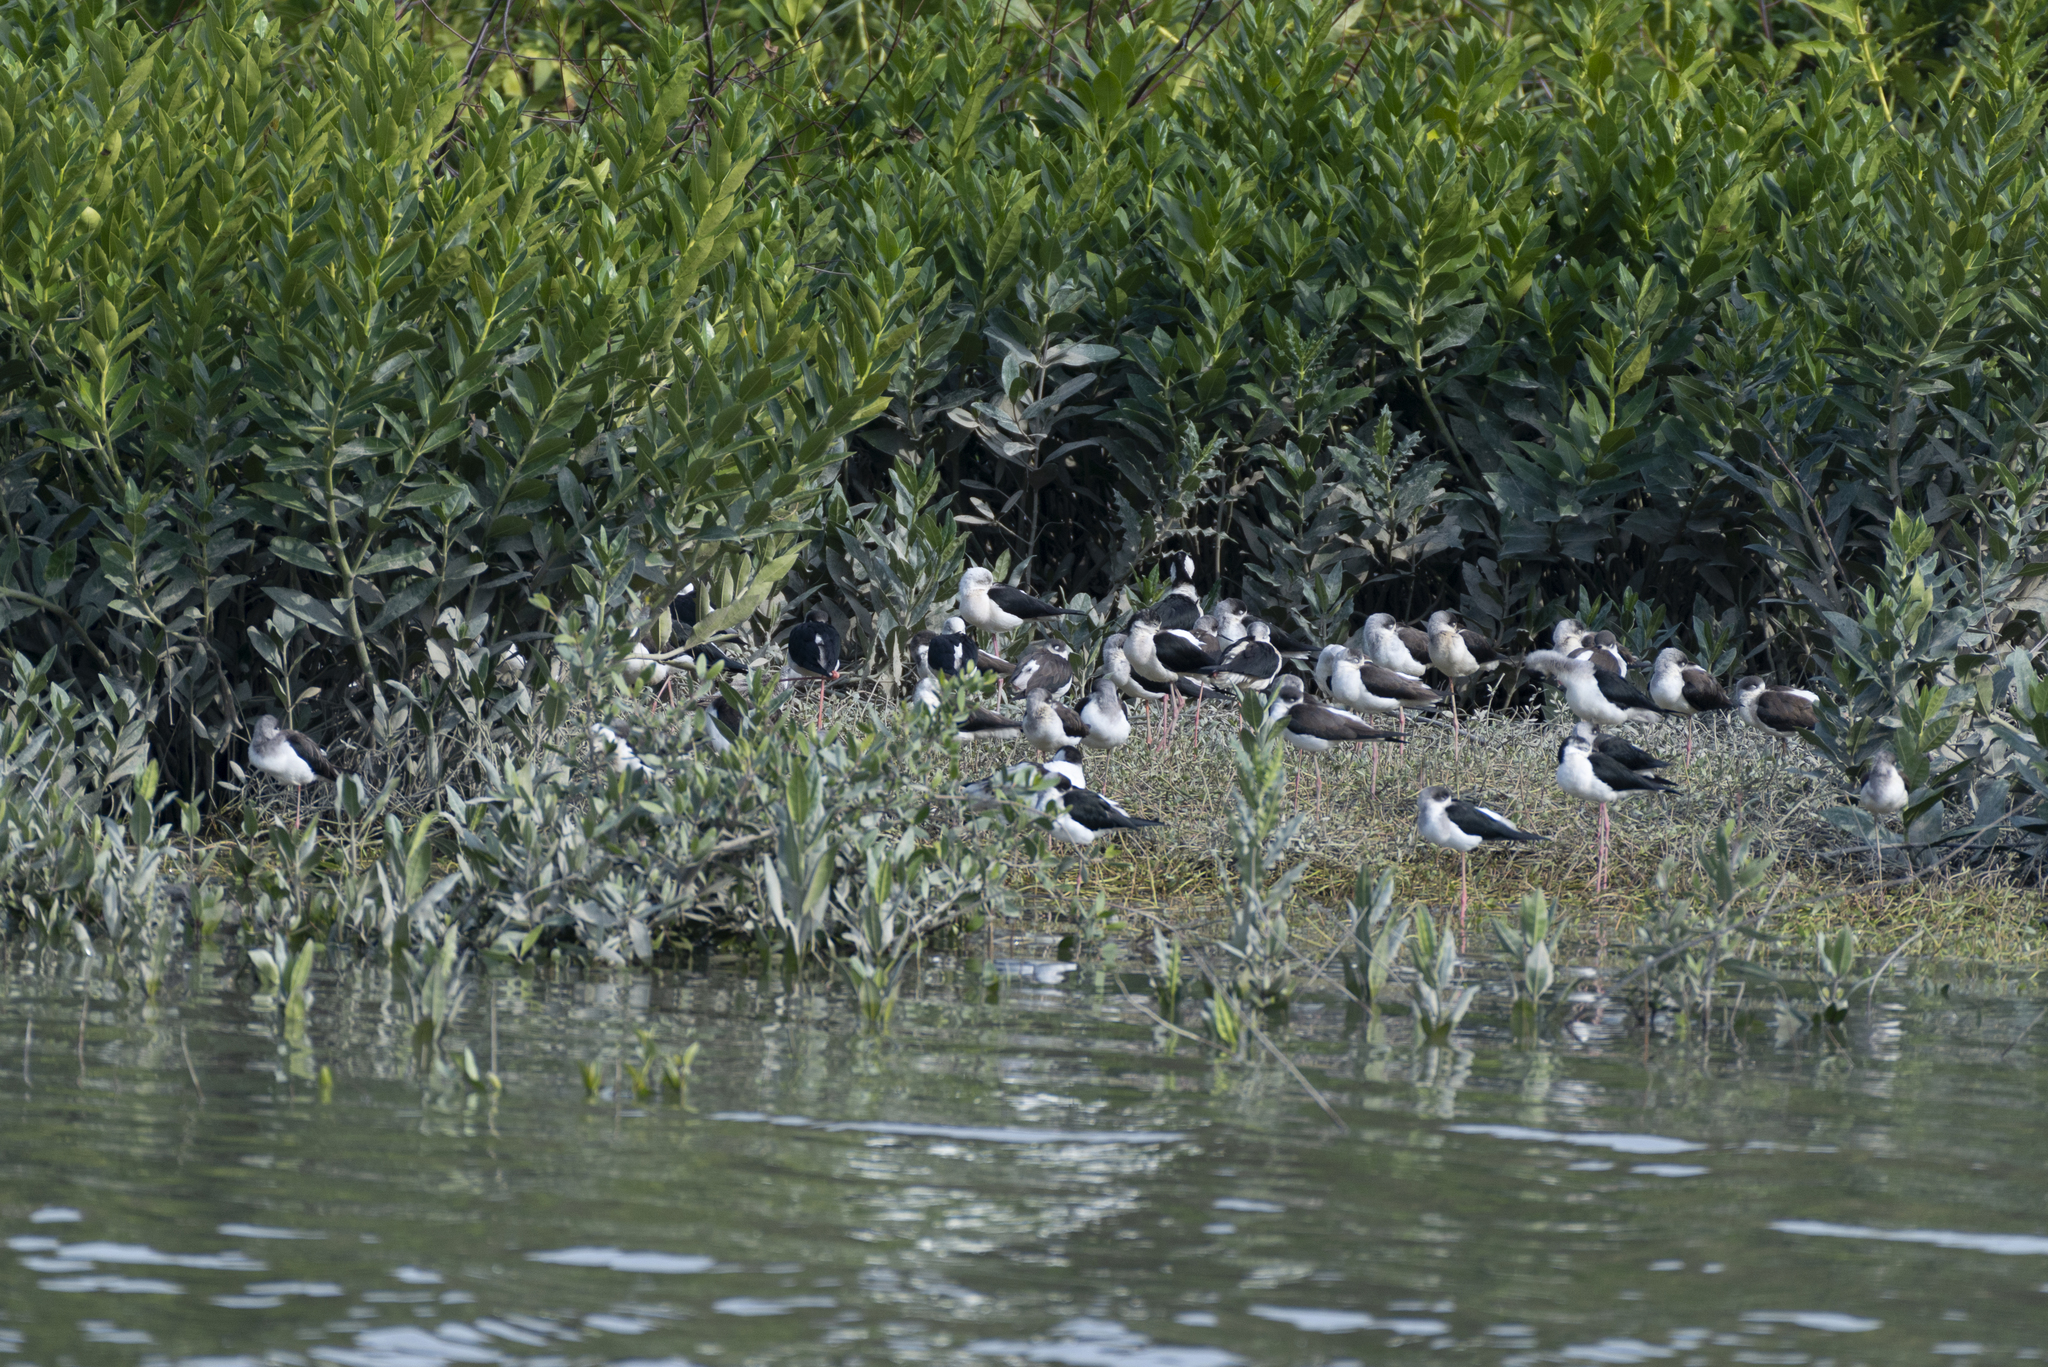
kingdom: Animalia
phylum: Chordata
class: Aves
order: Charadriiformes
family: Recurvirostridae
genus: Himantopus
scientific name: Himantopus himantopus
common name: Black-winged stilt
